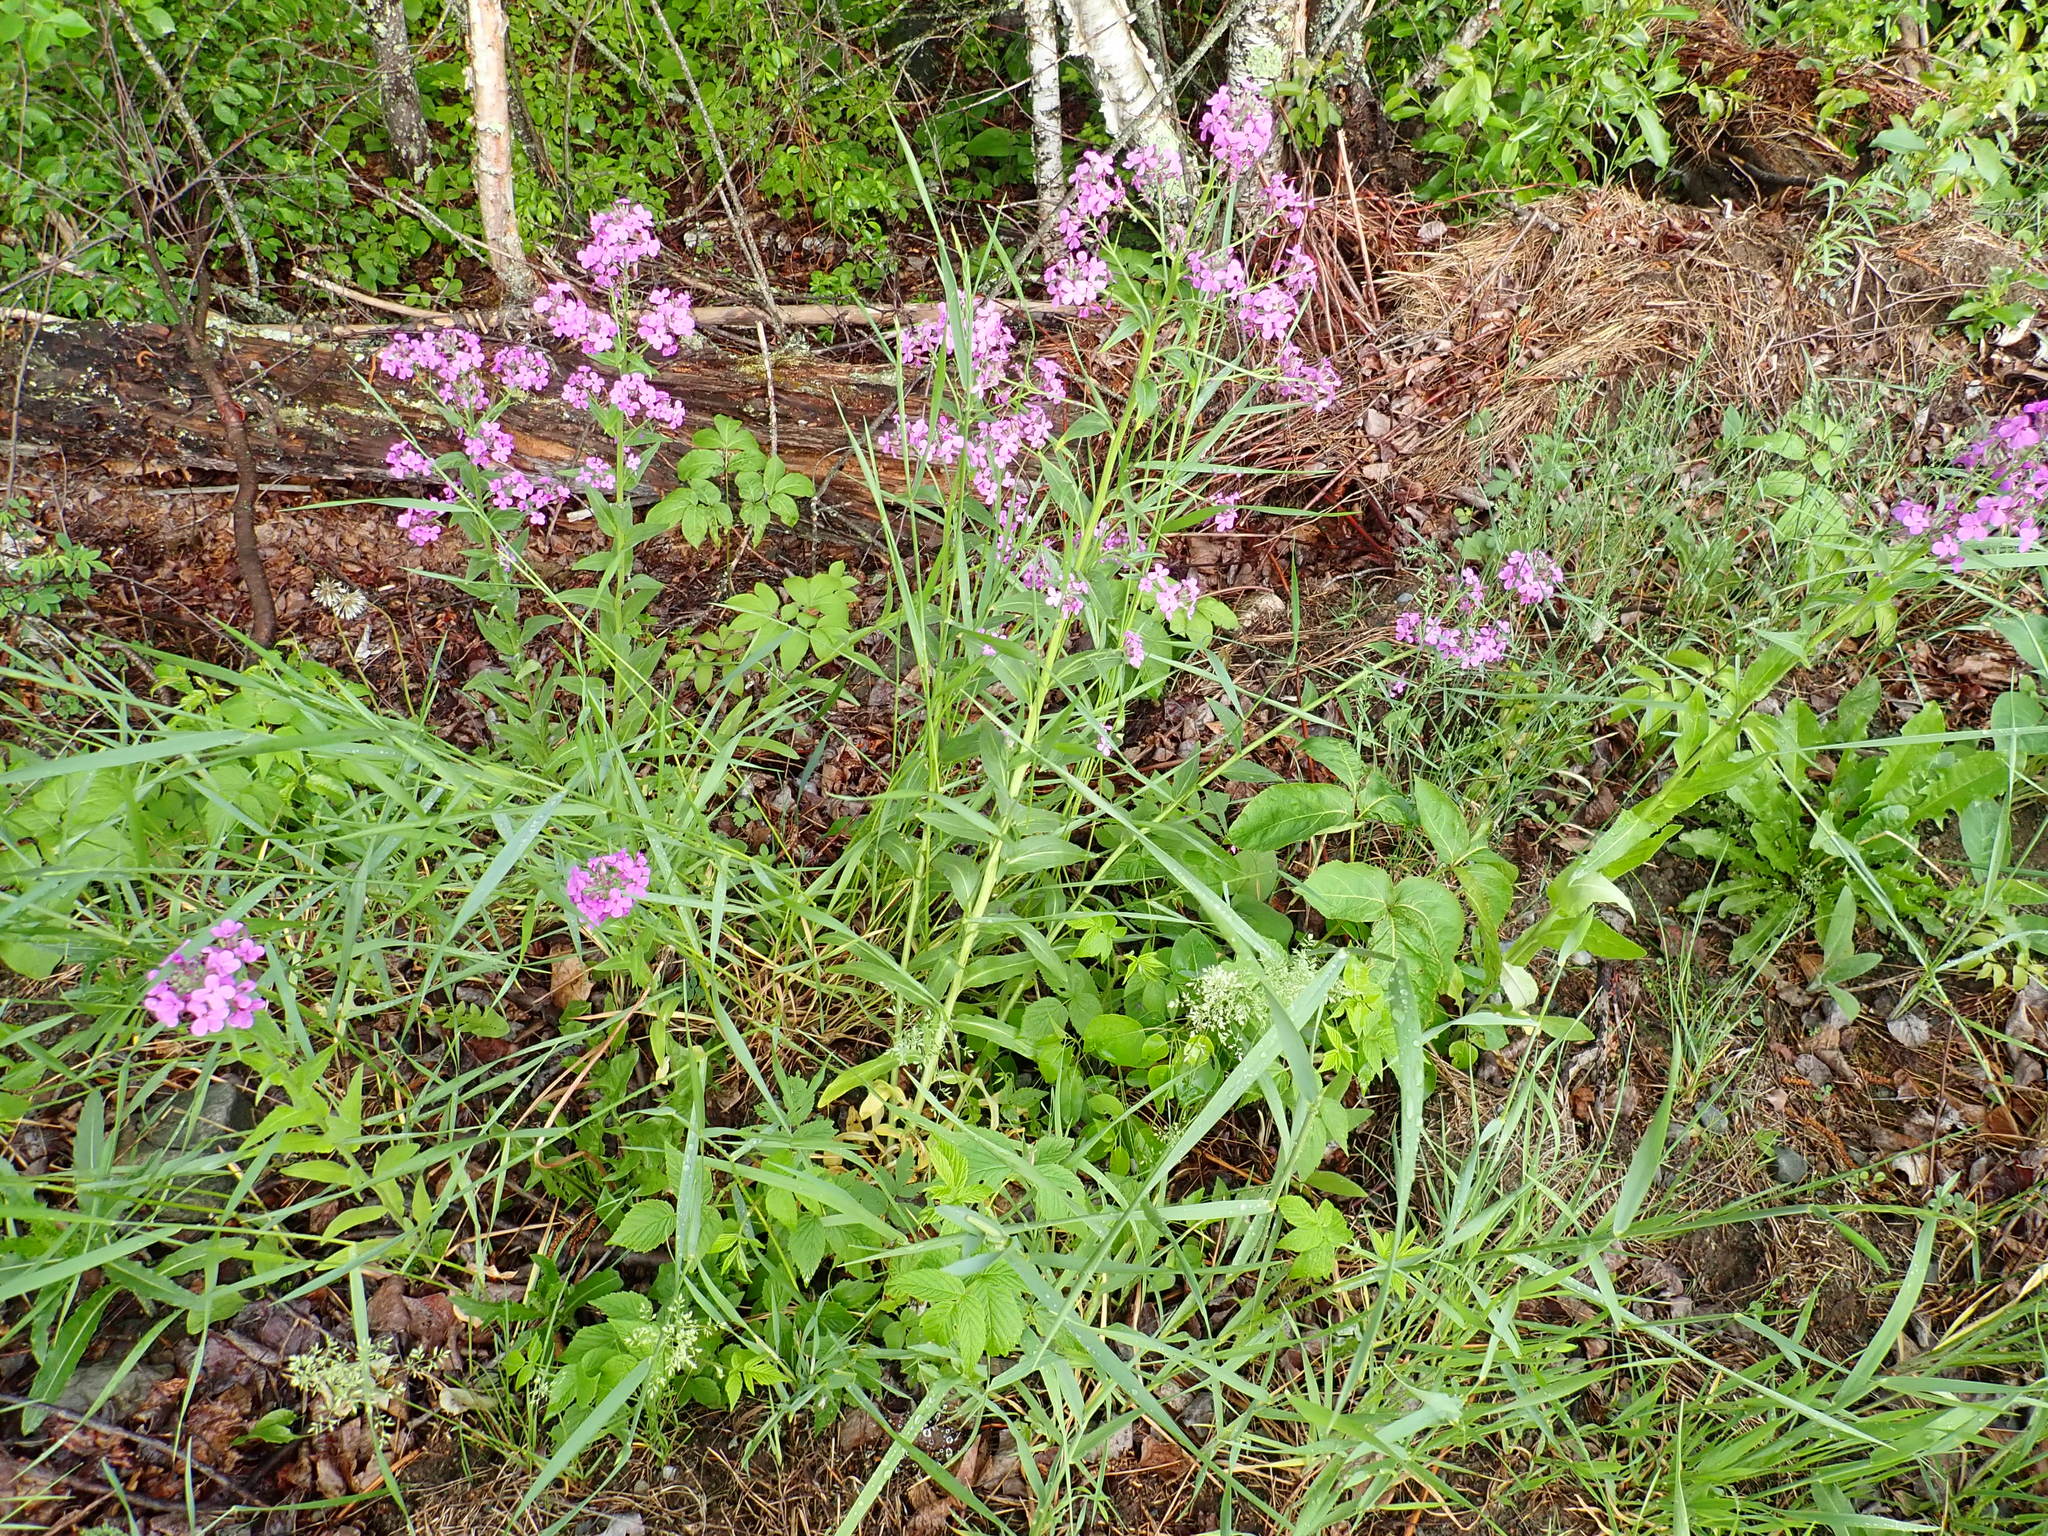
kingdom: Plantae
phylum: Tracheophyta
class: Magnoliopsida
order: Brassicales
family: Brassicaceae
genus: Hesperis
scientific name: Hesperis matronalis
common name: Dame's-violet
